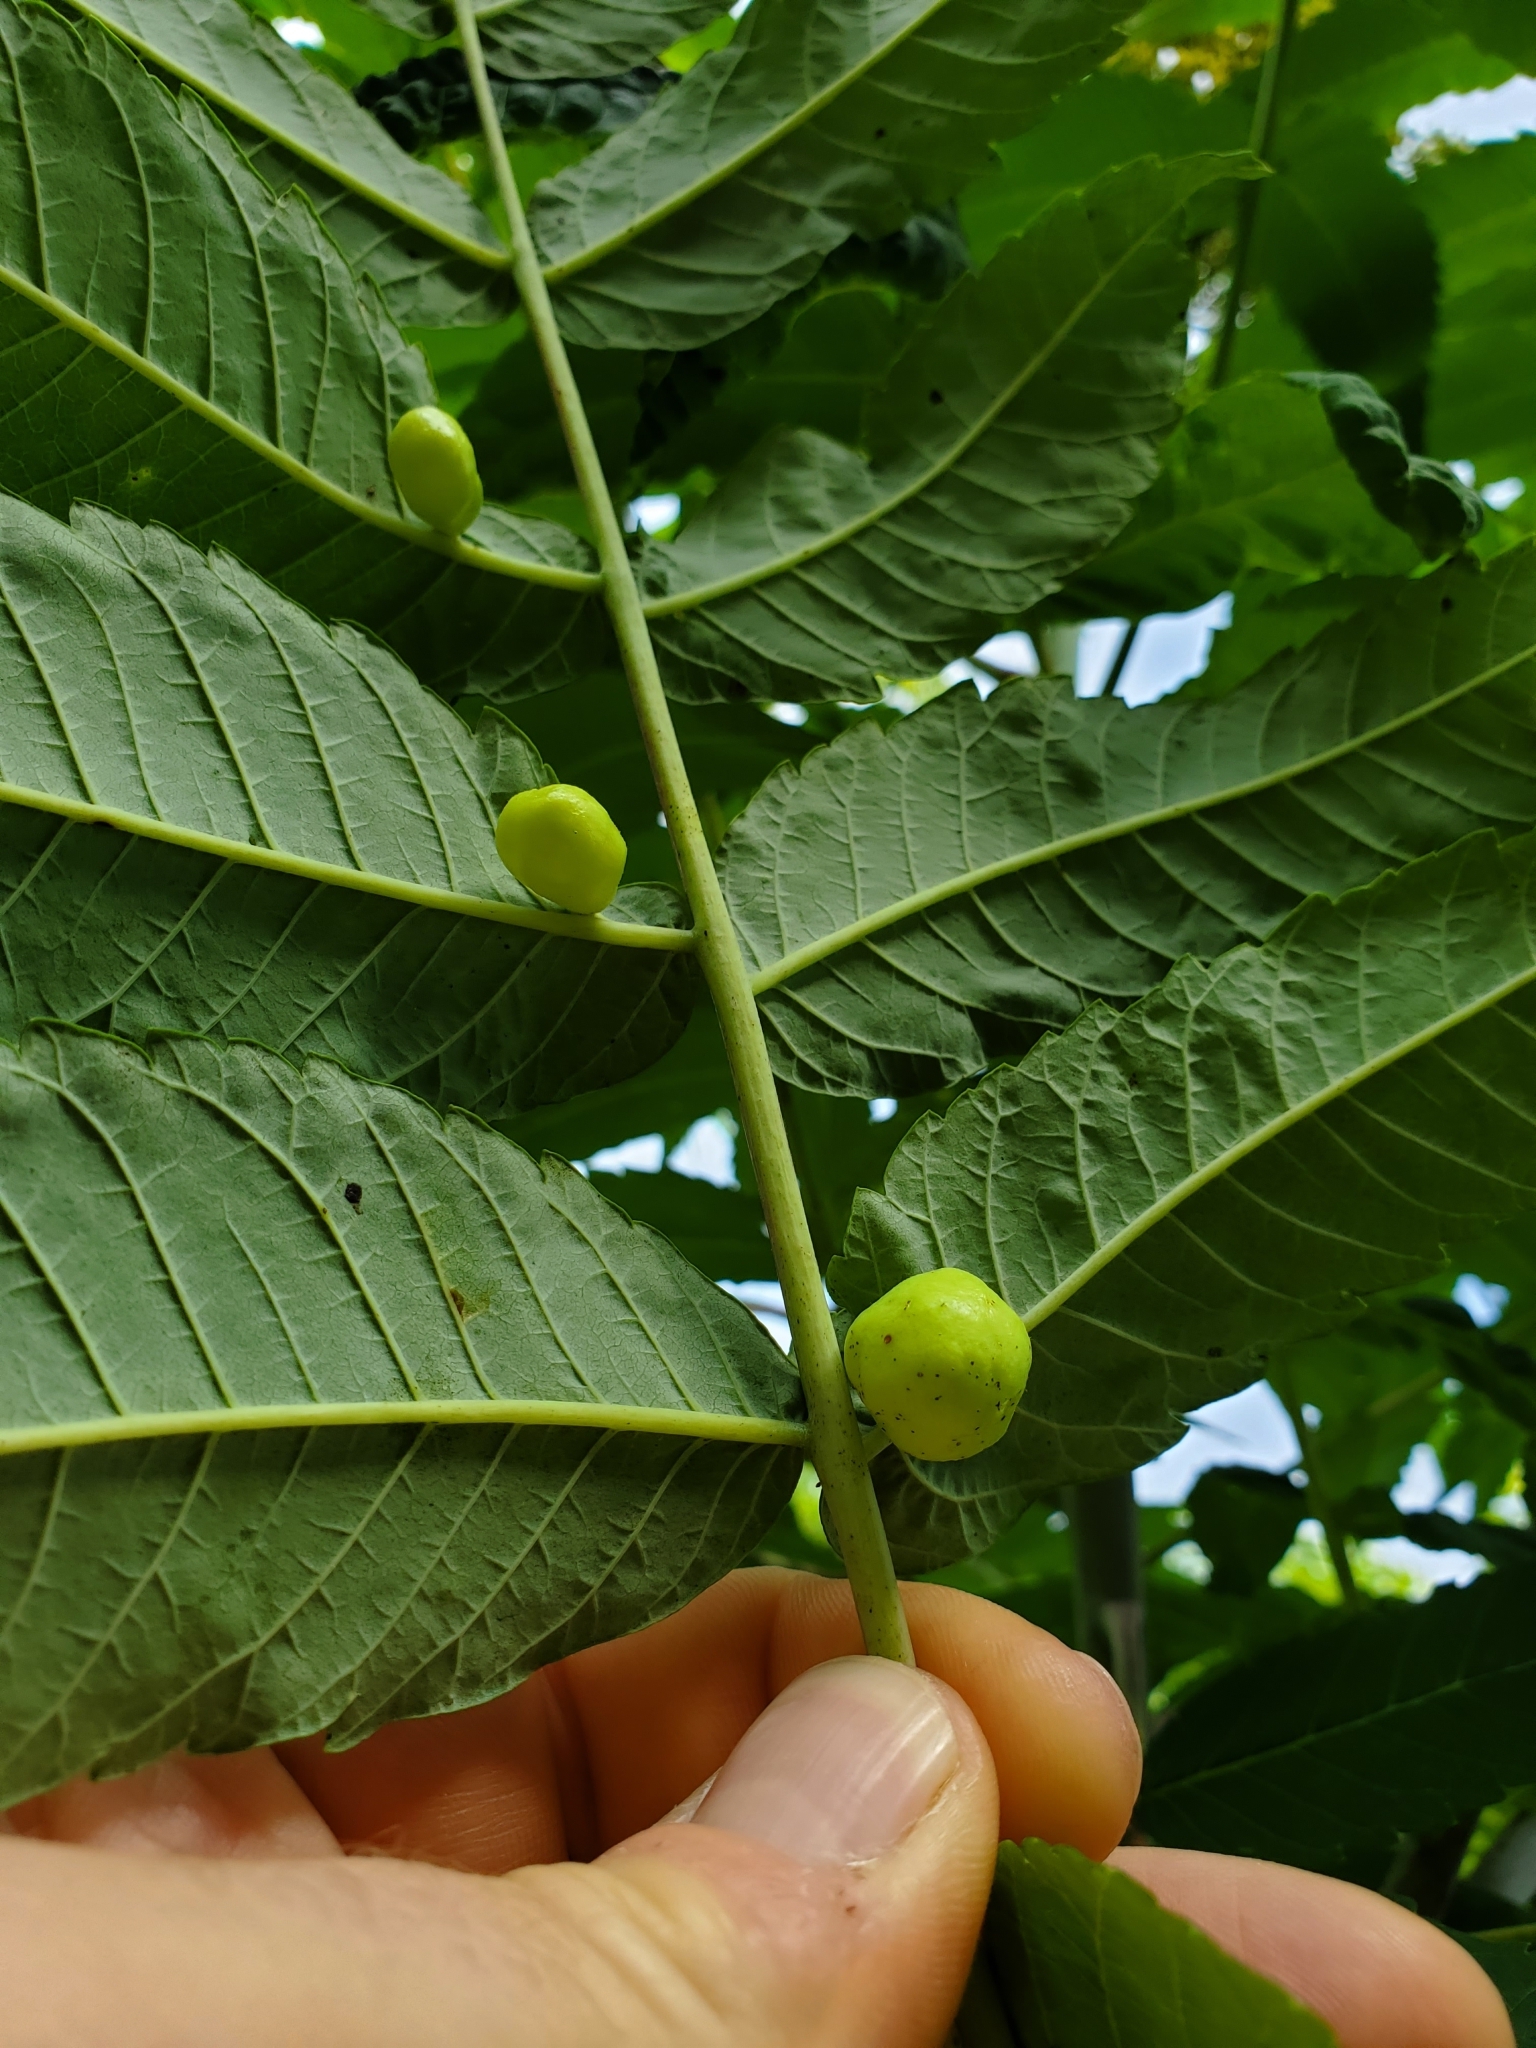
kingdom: Animalia
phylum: Arthropoda
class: Insecta
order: Hemiptera
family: Aphididae
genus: Melaphis
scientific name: Melaphis rhois
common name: Sumac gall aphid
